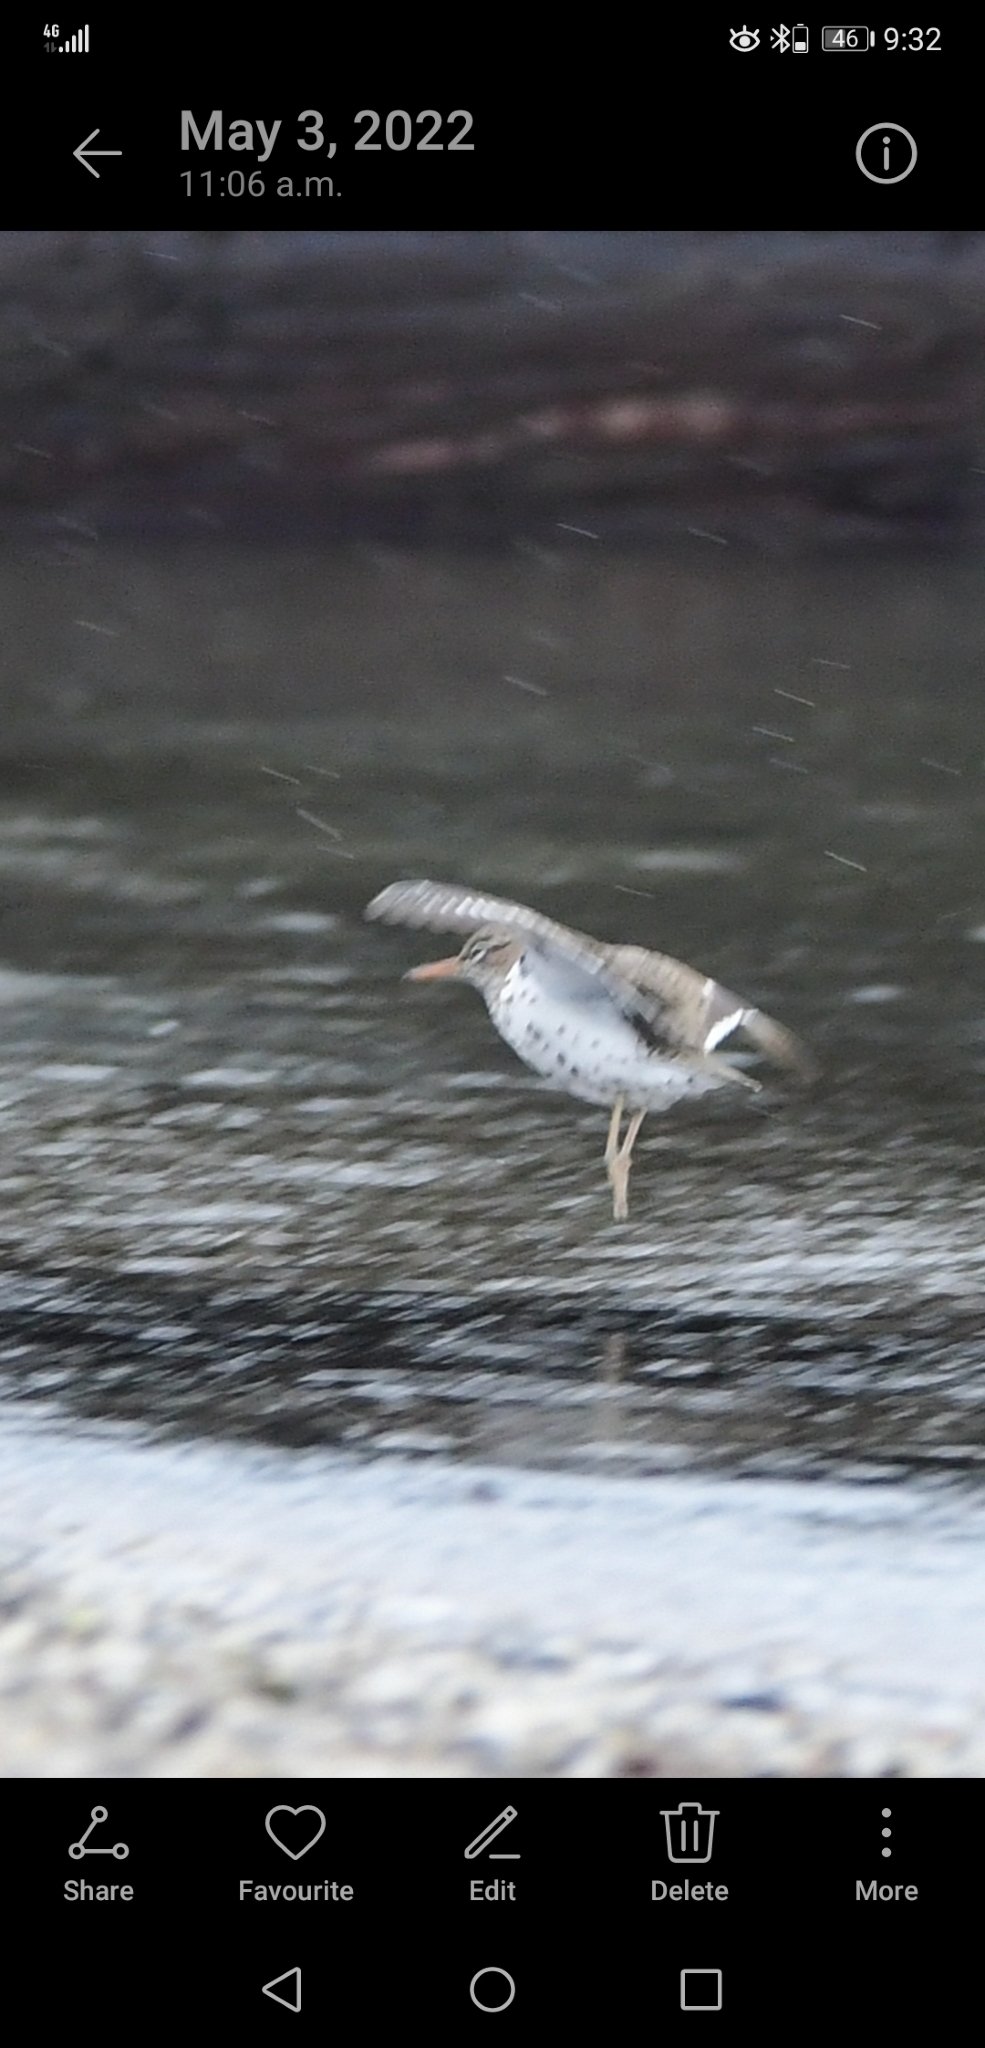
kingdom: Animalia
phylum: Chordata
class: Aves
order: Charadriiformes
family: Scolopacidae
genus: Actitis
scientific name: Actitis macularius
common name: Spotted sandpiper
